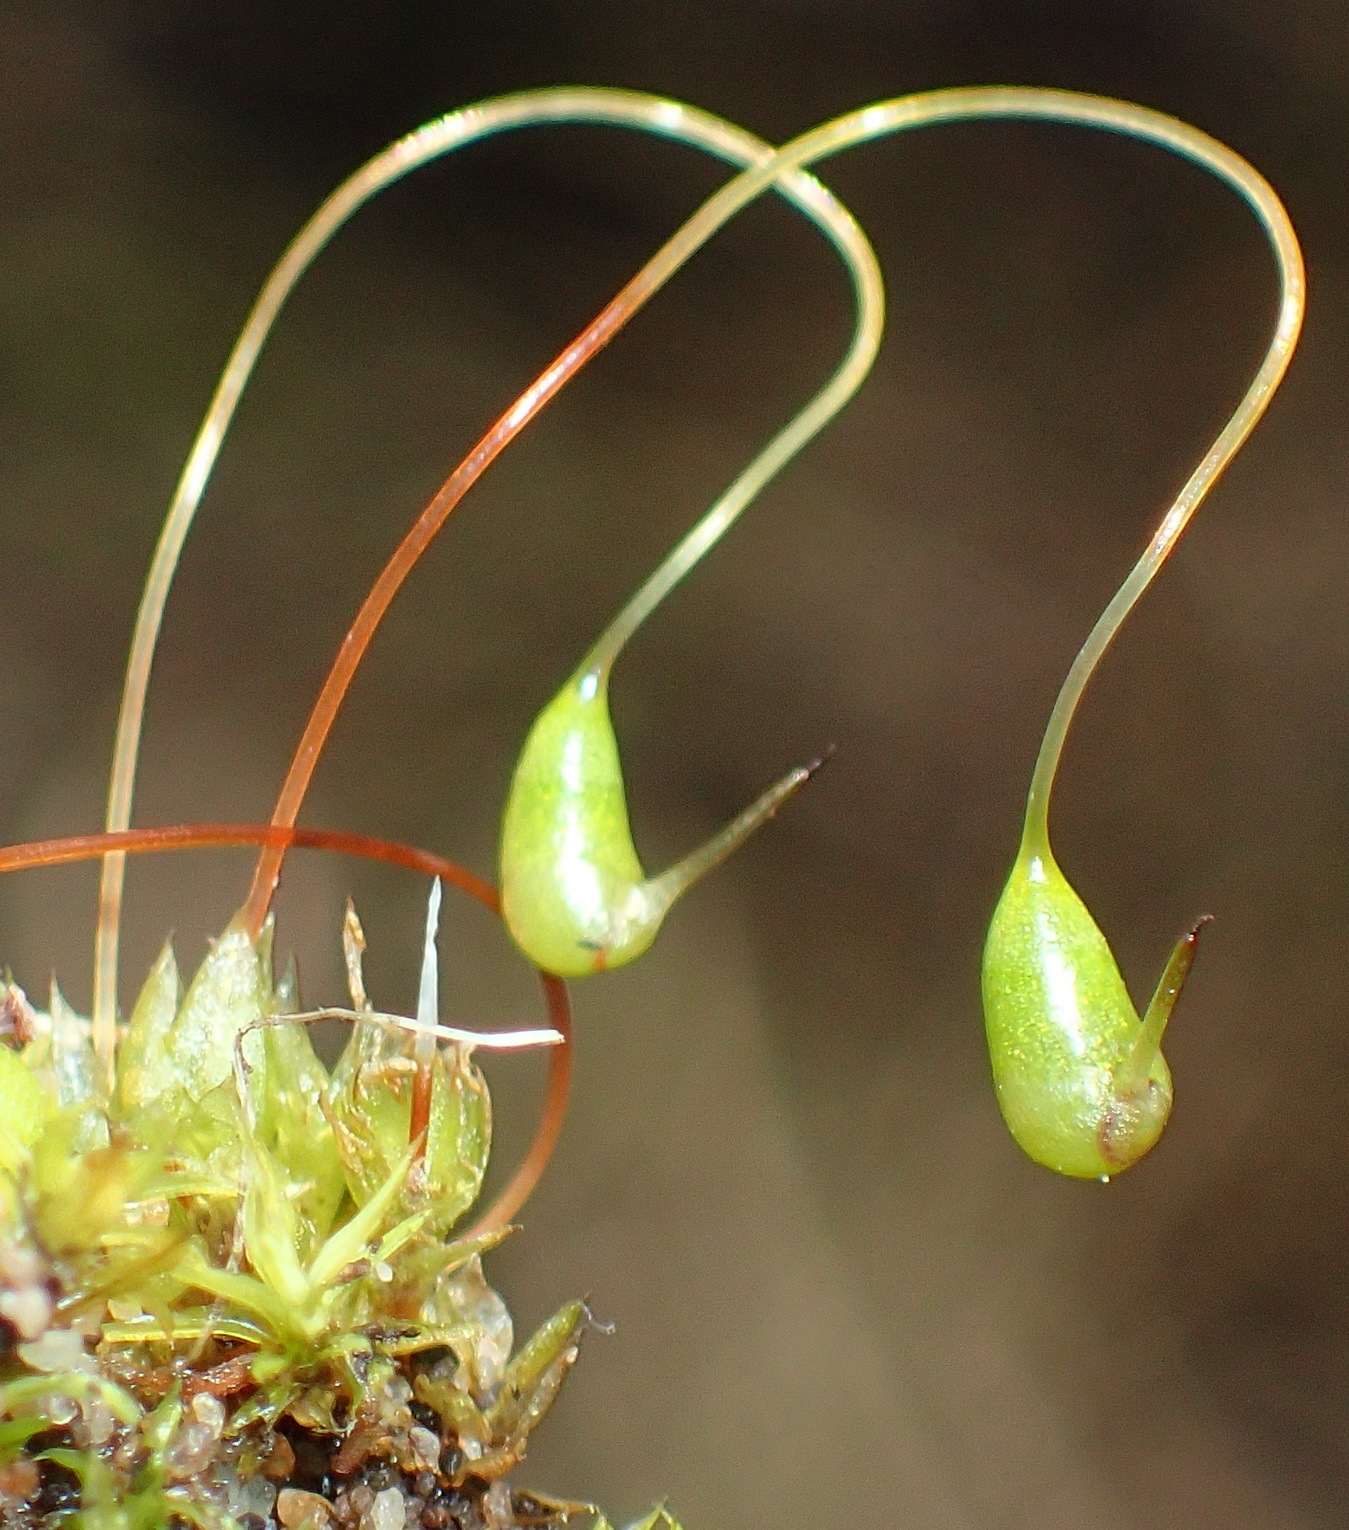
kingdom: Plantae
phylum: Bryophyta
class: Bryopsida
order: Funariales
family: Funariaceae
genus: Funaria
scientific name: Funaria hygrometrica
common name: Common cord moss
